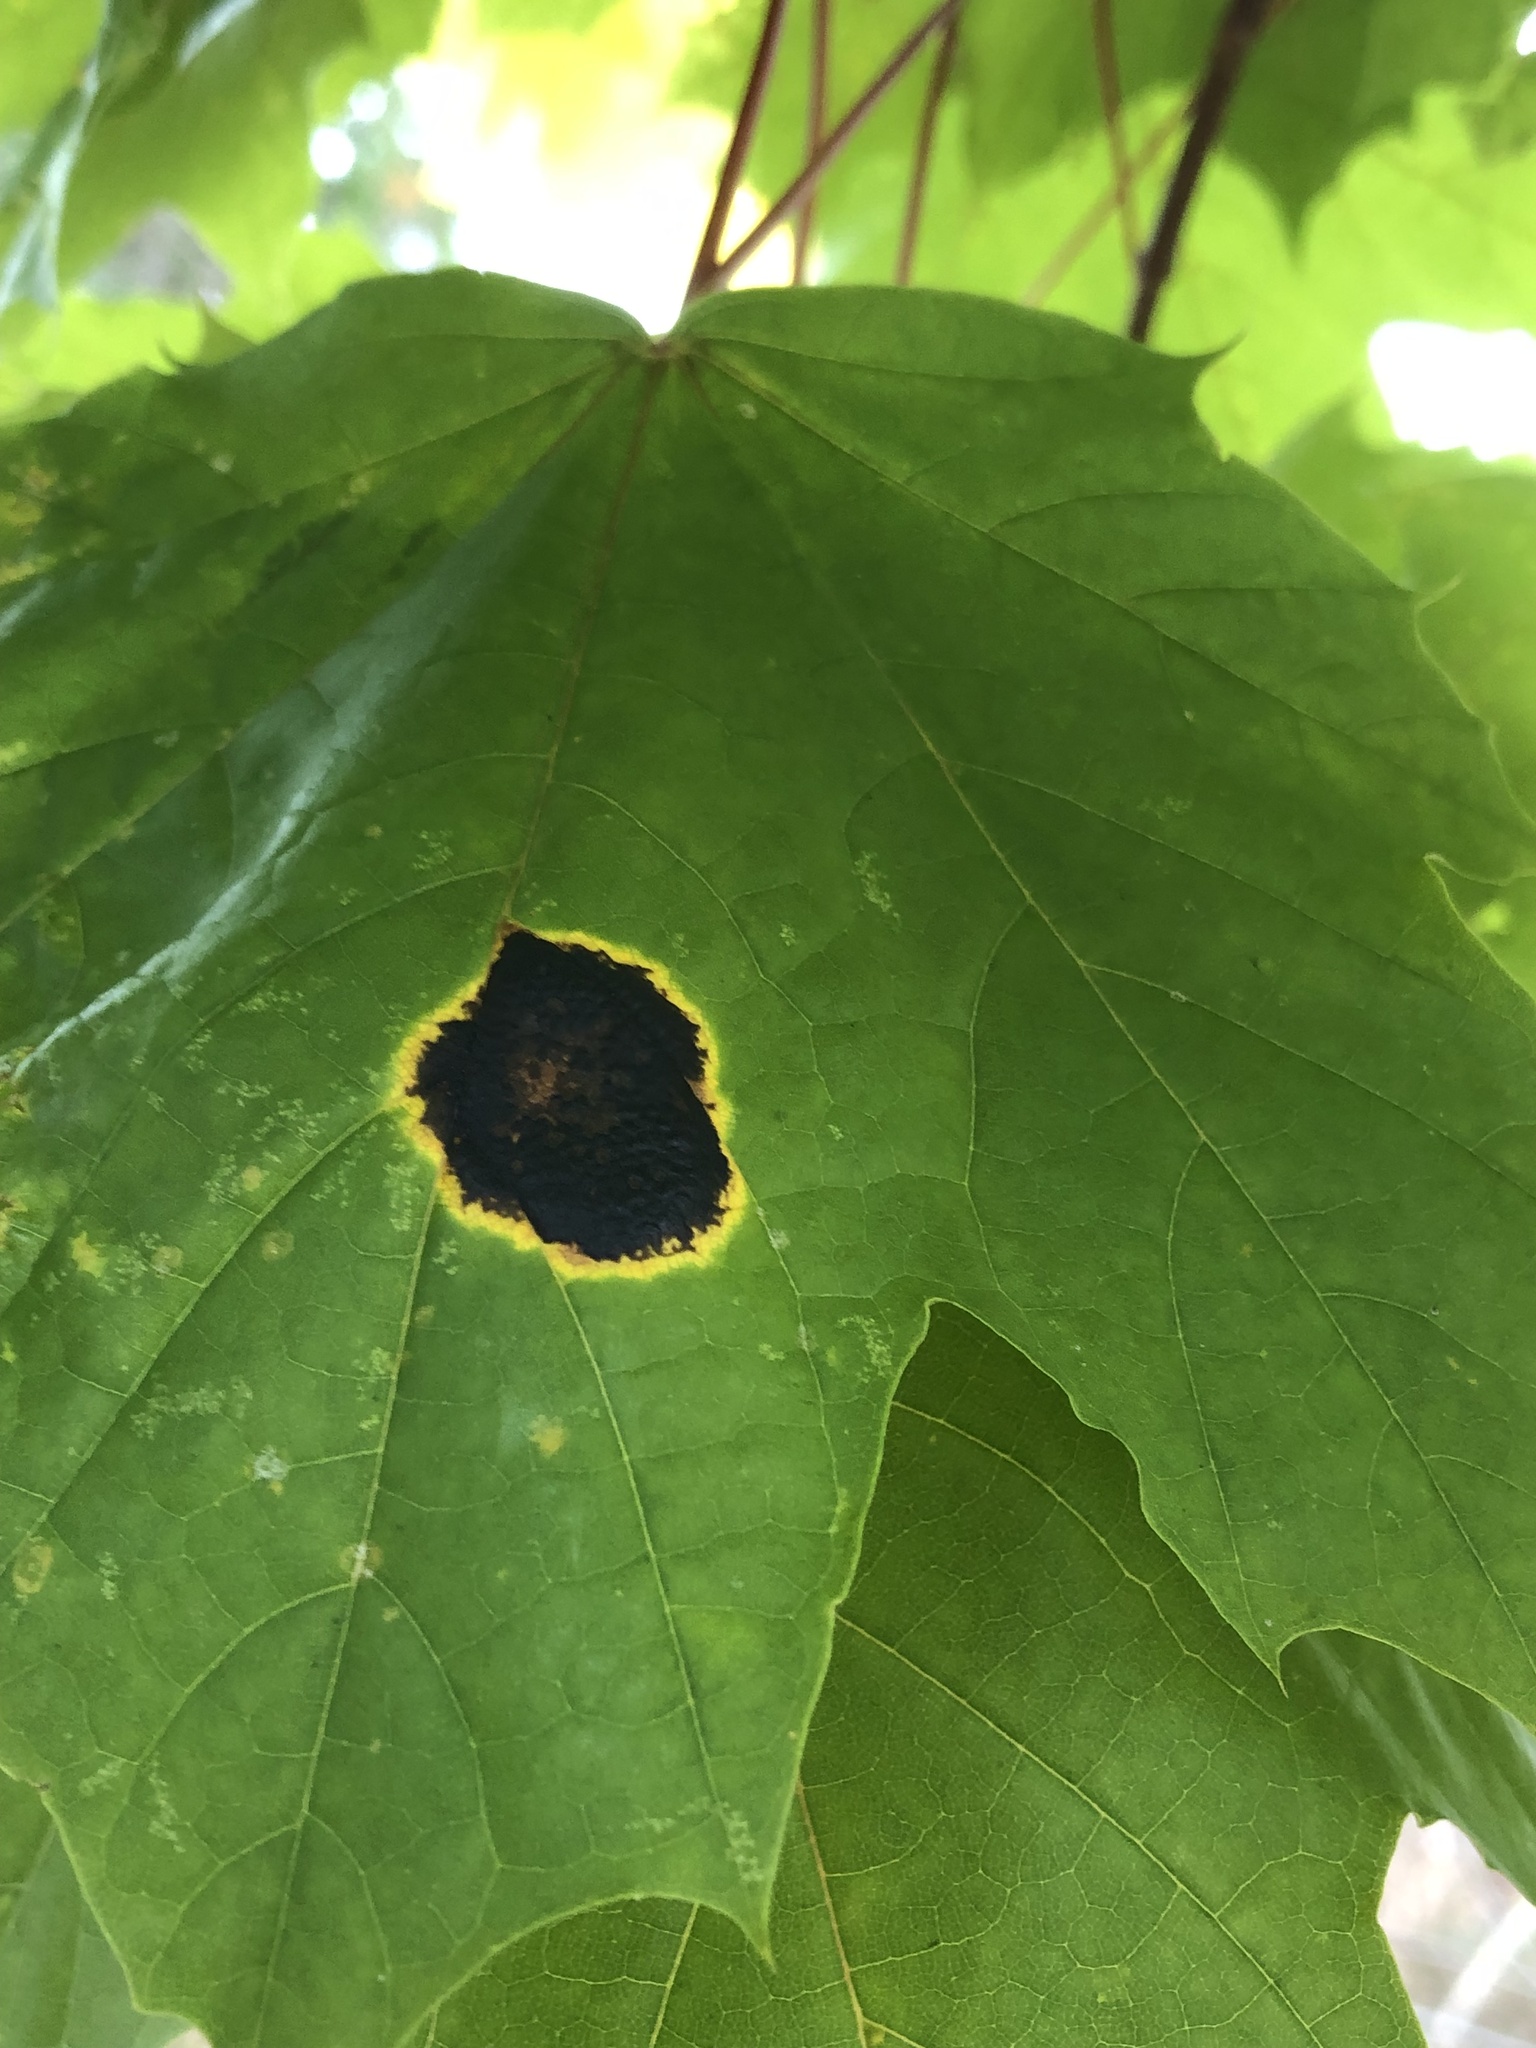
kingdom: Fungi
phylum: Ascomycota
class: Leotiomycetes
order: Rhytismatales
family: Rhytismataceae
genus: Rhytisma
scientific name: Rhytisma acerinum
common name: European tar spot
